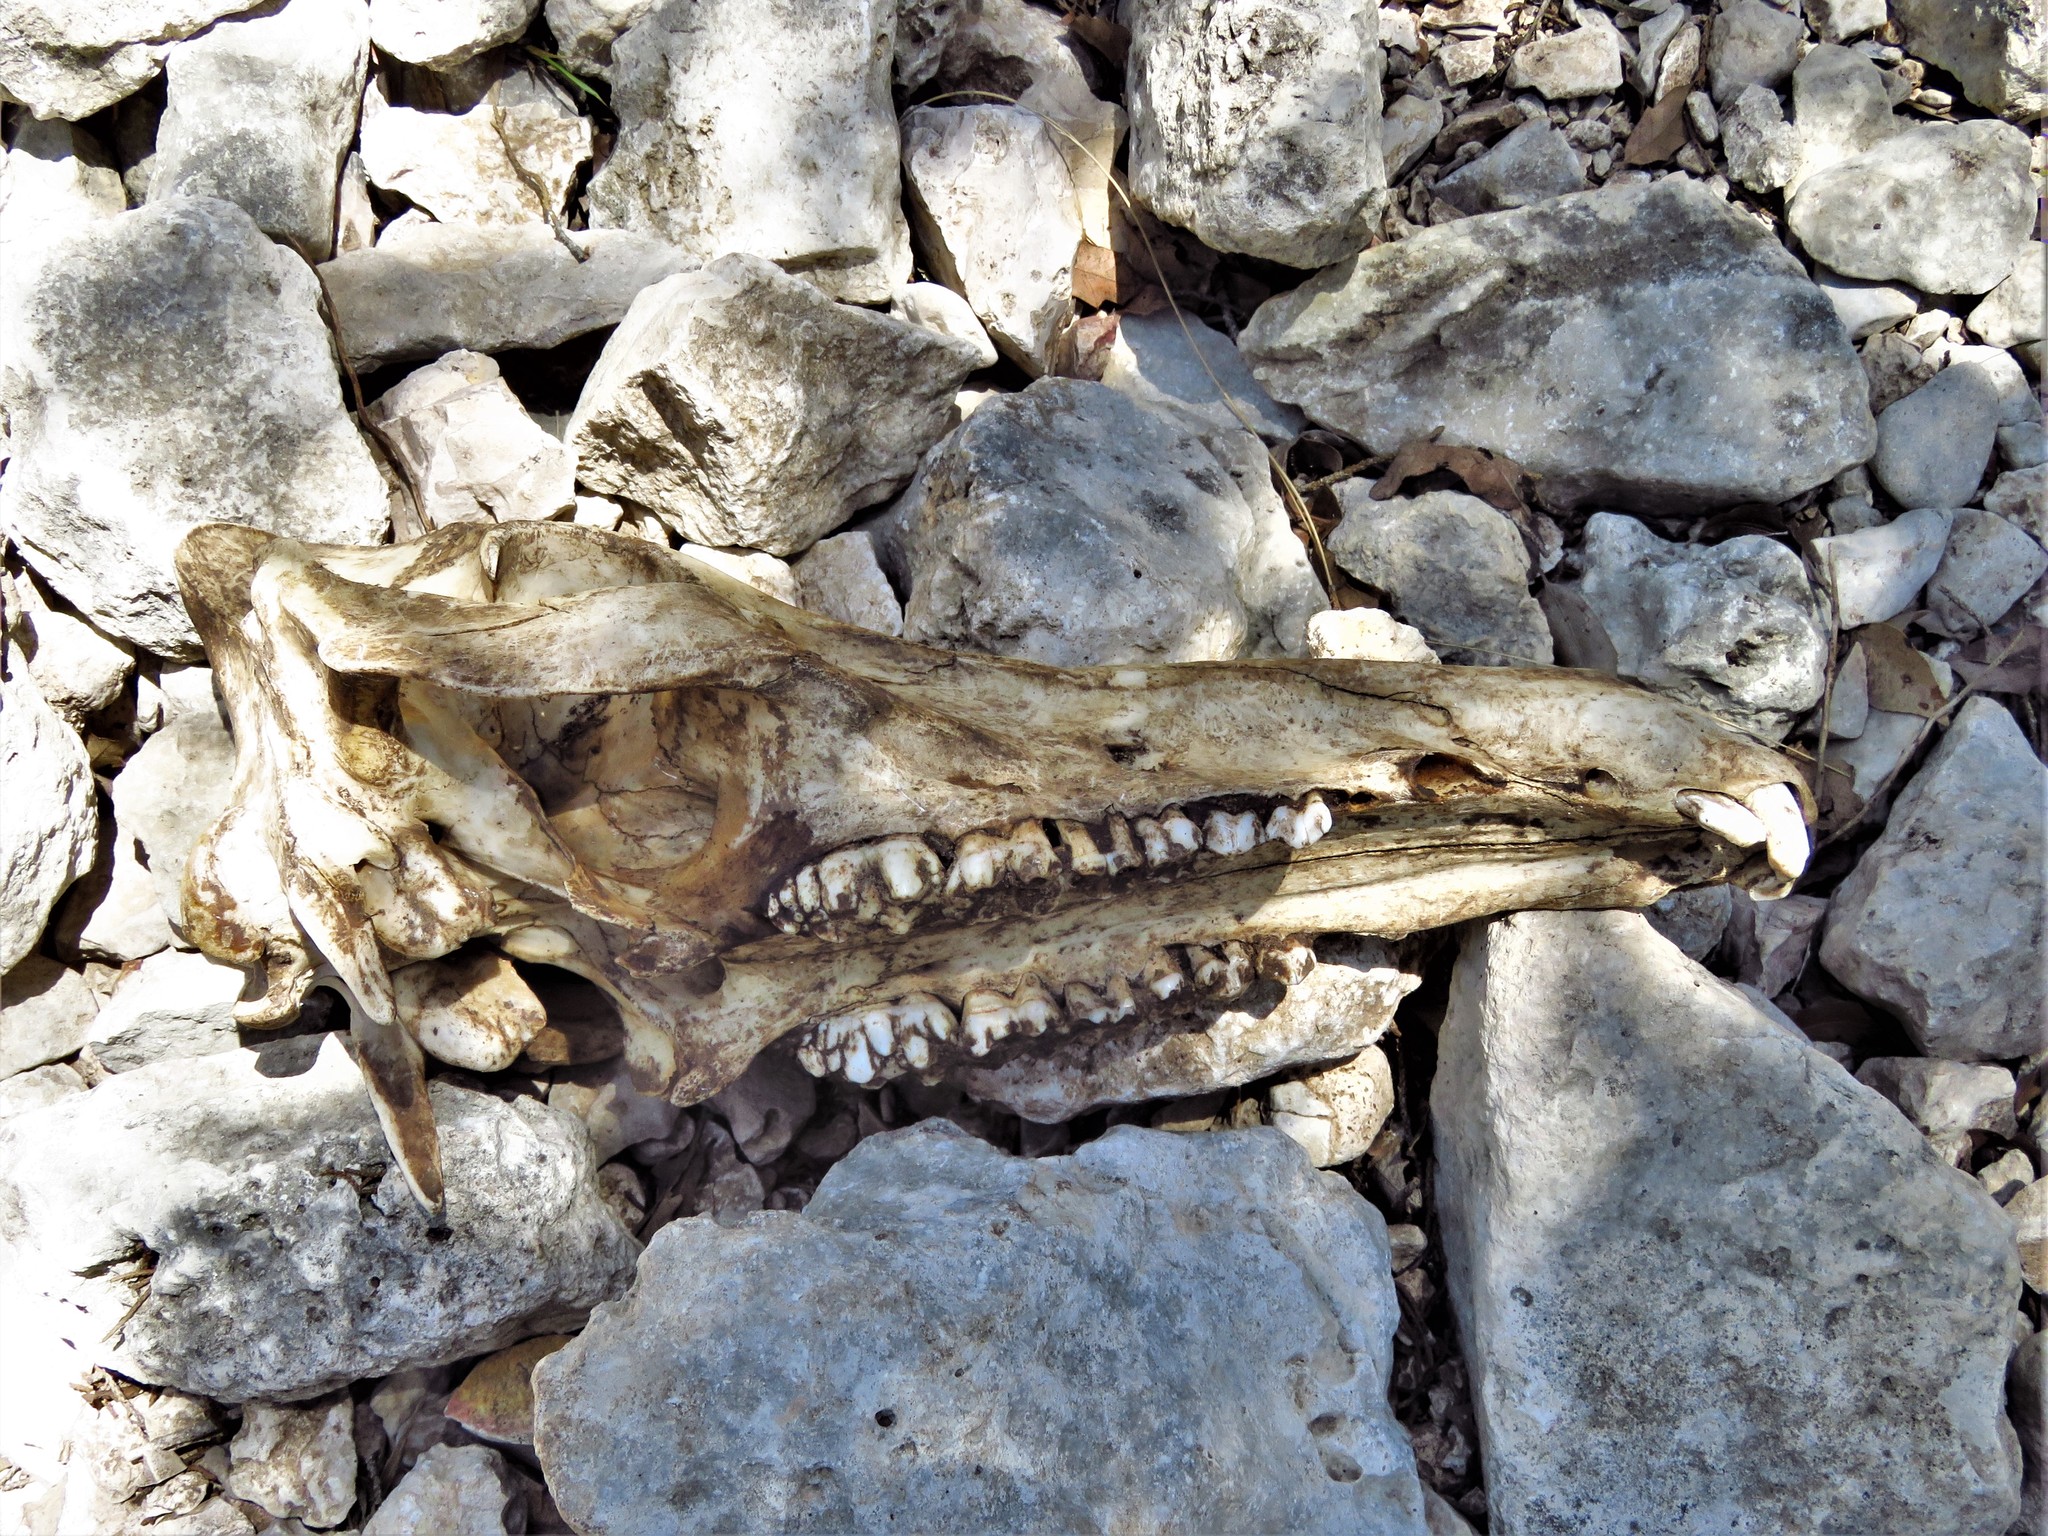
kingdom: Animalia
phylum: Chordata
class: Mammalia
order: Artiodactyla
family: Suidae
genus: Sus
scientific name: Sus scrofa
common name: Wild boar
